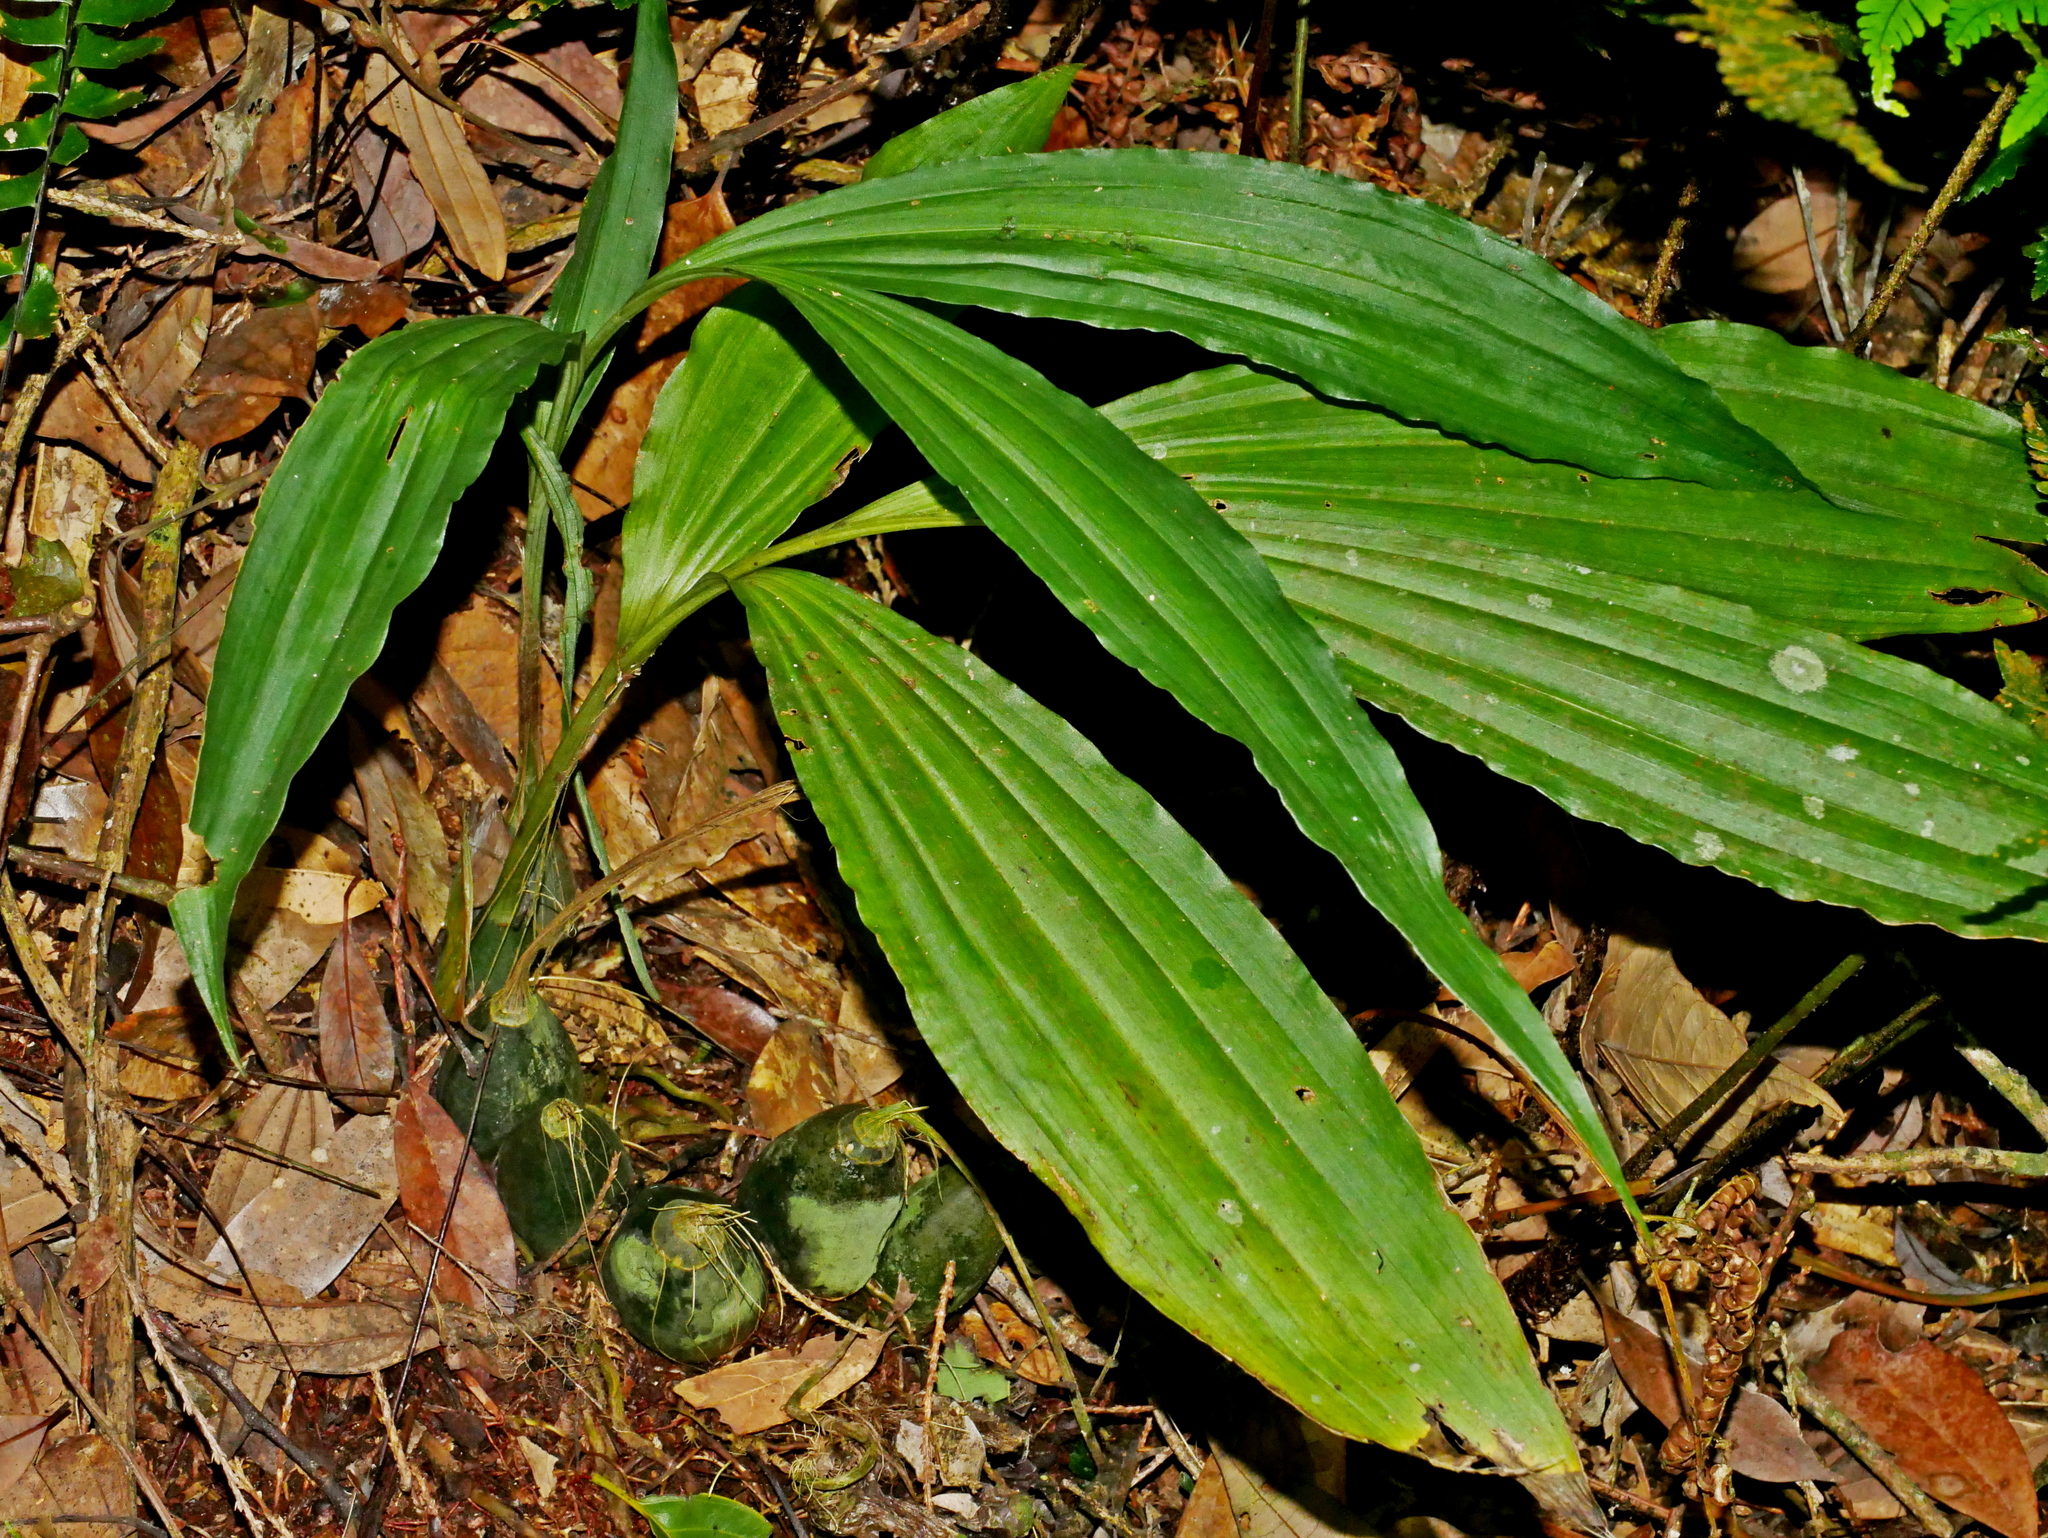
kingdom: Plantae
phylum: Tracheophyta
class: Liliopsida
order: Asparagales
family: Orchidaceae
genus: Calanthe
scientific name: Calanthe woodfordii
